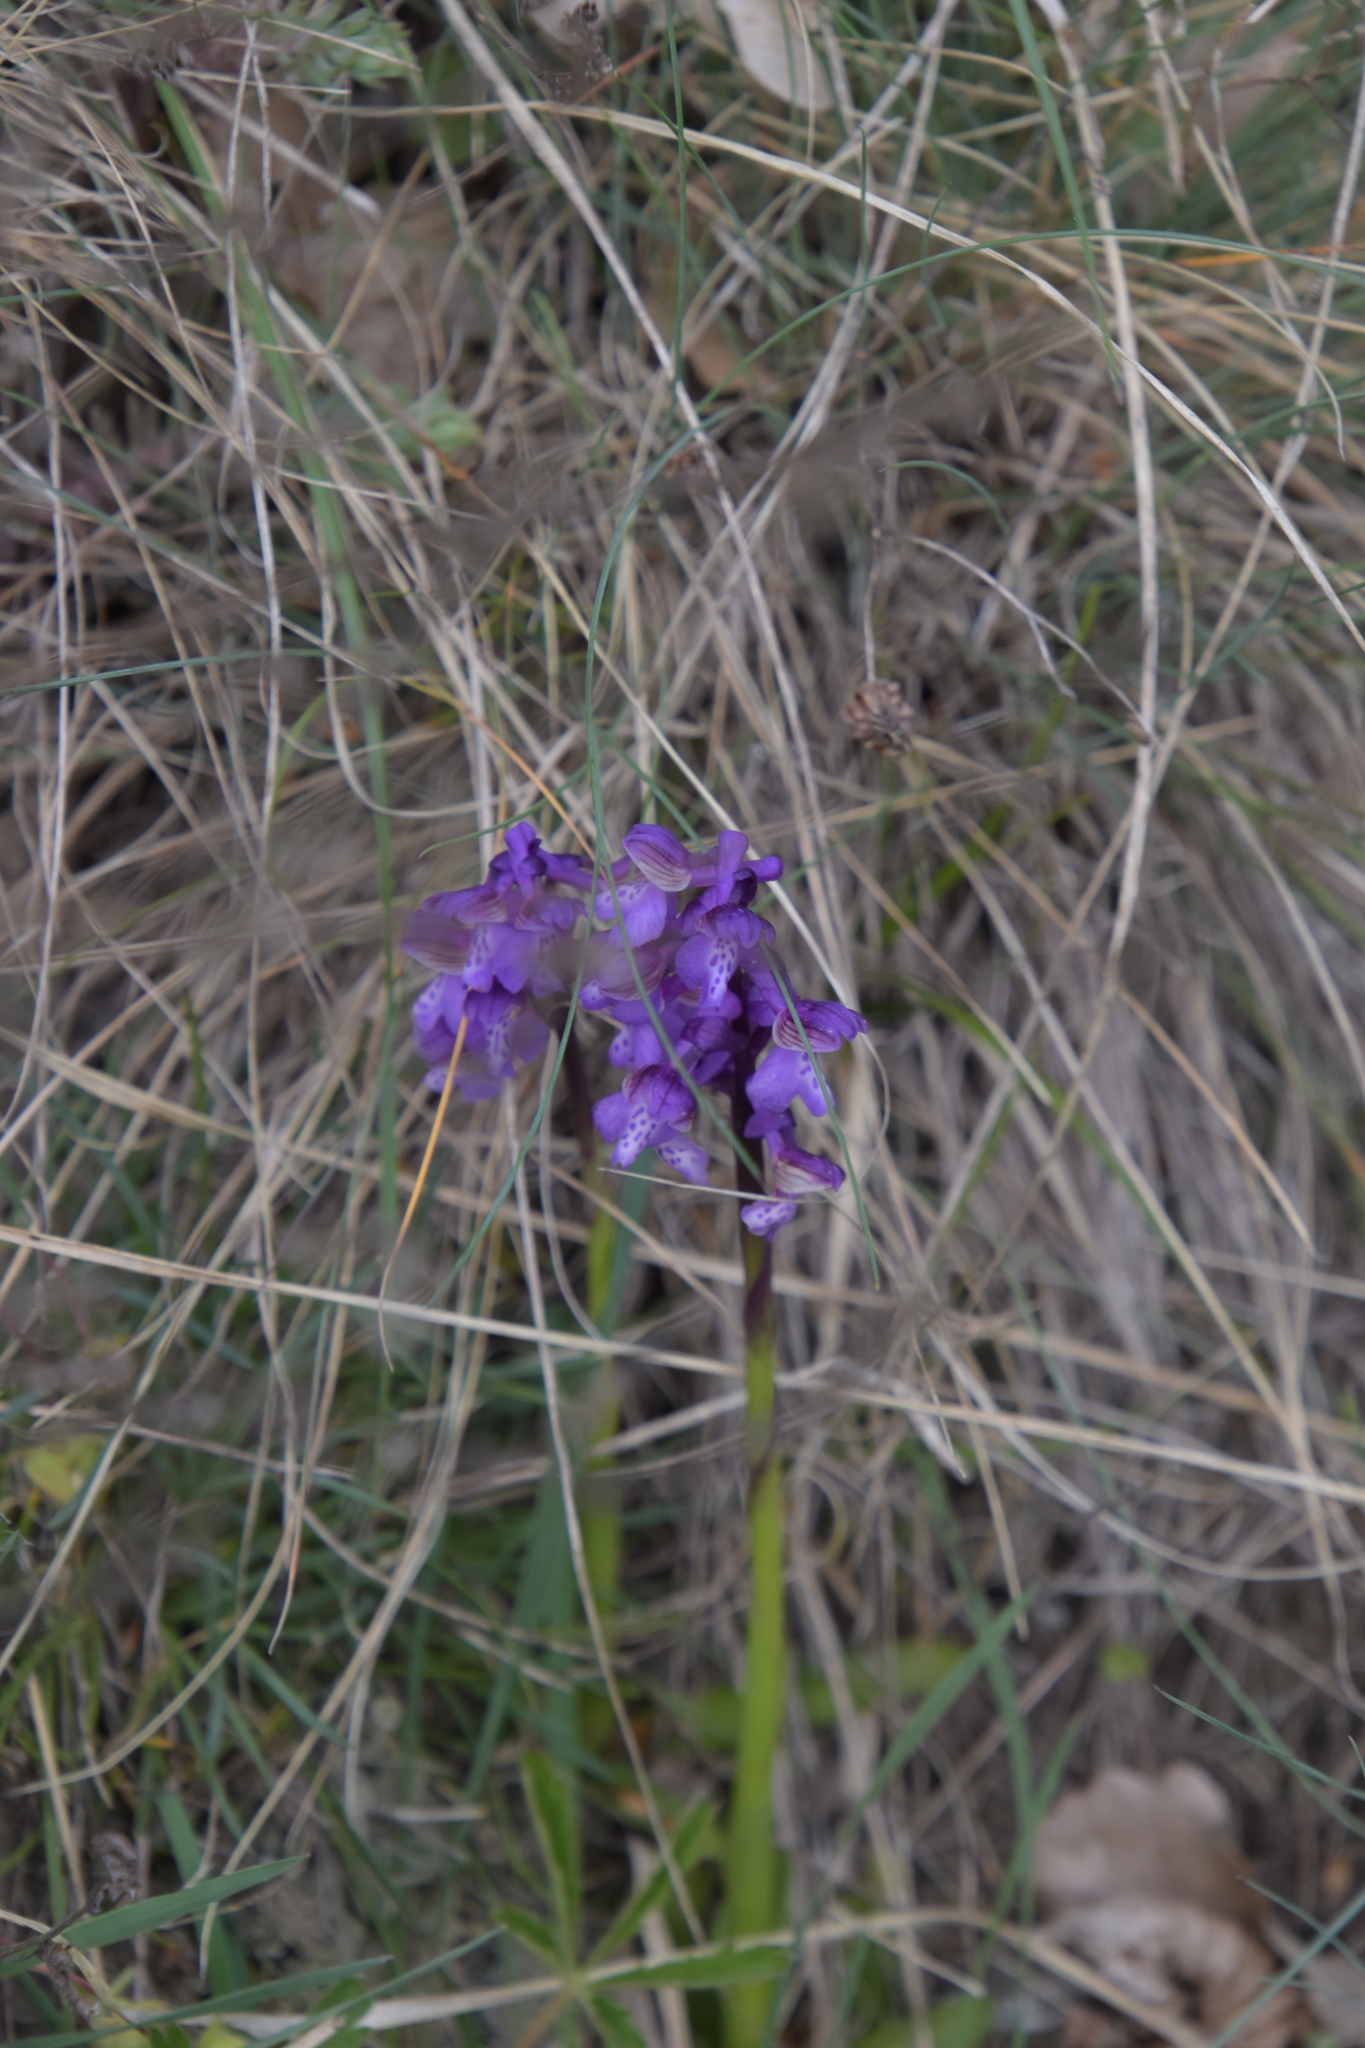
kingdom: Plantae
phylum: Tracheophyta
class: Liliopsida
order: Asparagales
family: Orchidaceae
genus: Anacamptis
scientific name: Anacamptis morio
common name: Green-winged orchid
